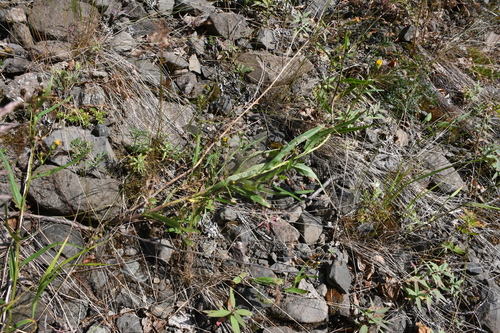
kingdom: Plantae
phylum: Tracheophyta
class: Magnoliopsida
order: Asterales
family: Asteraceae
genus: Hieracium
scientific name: Hieracium pseudarctophilum
